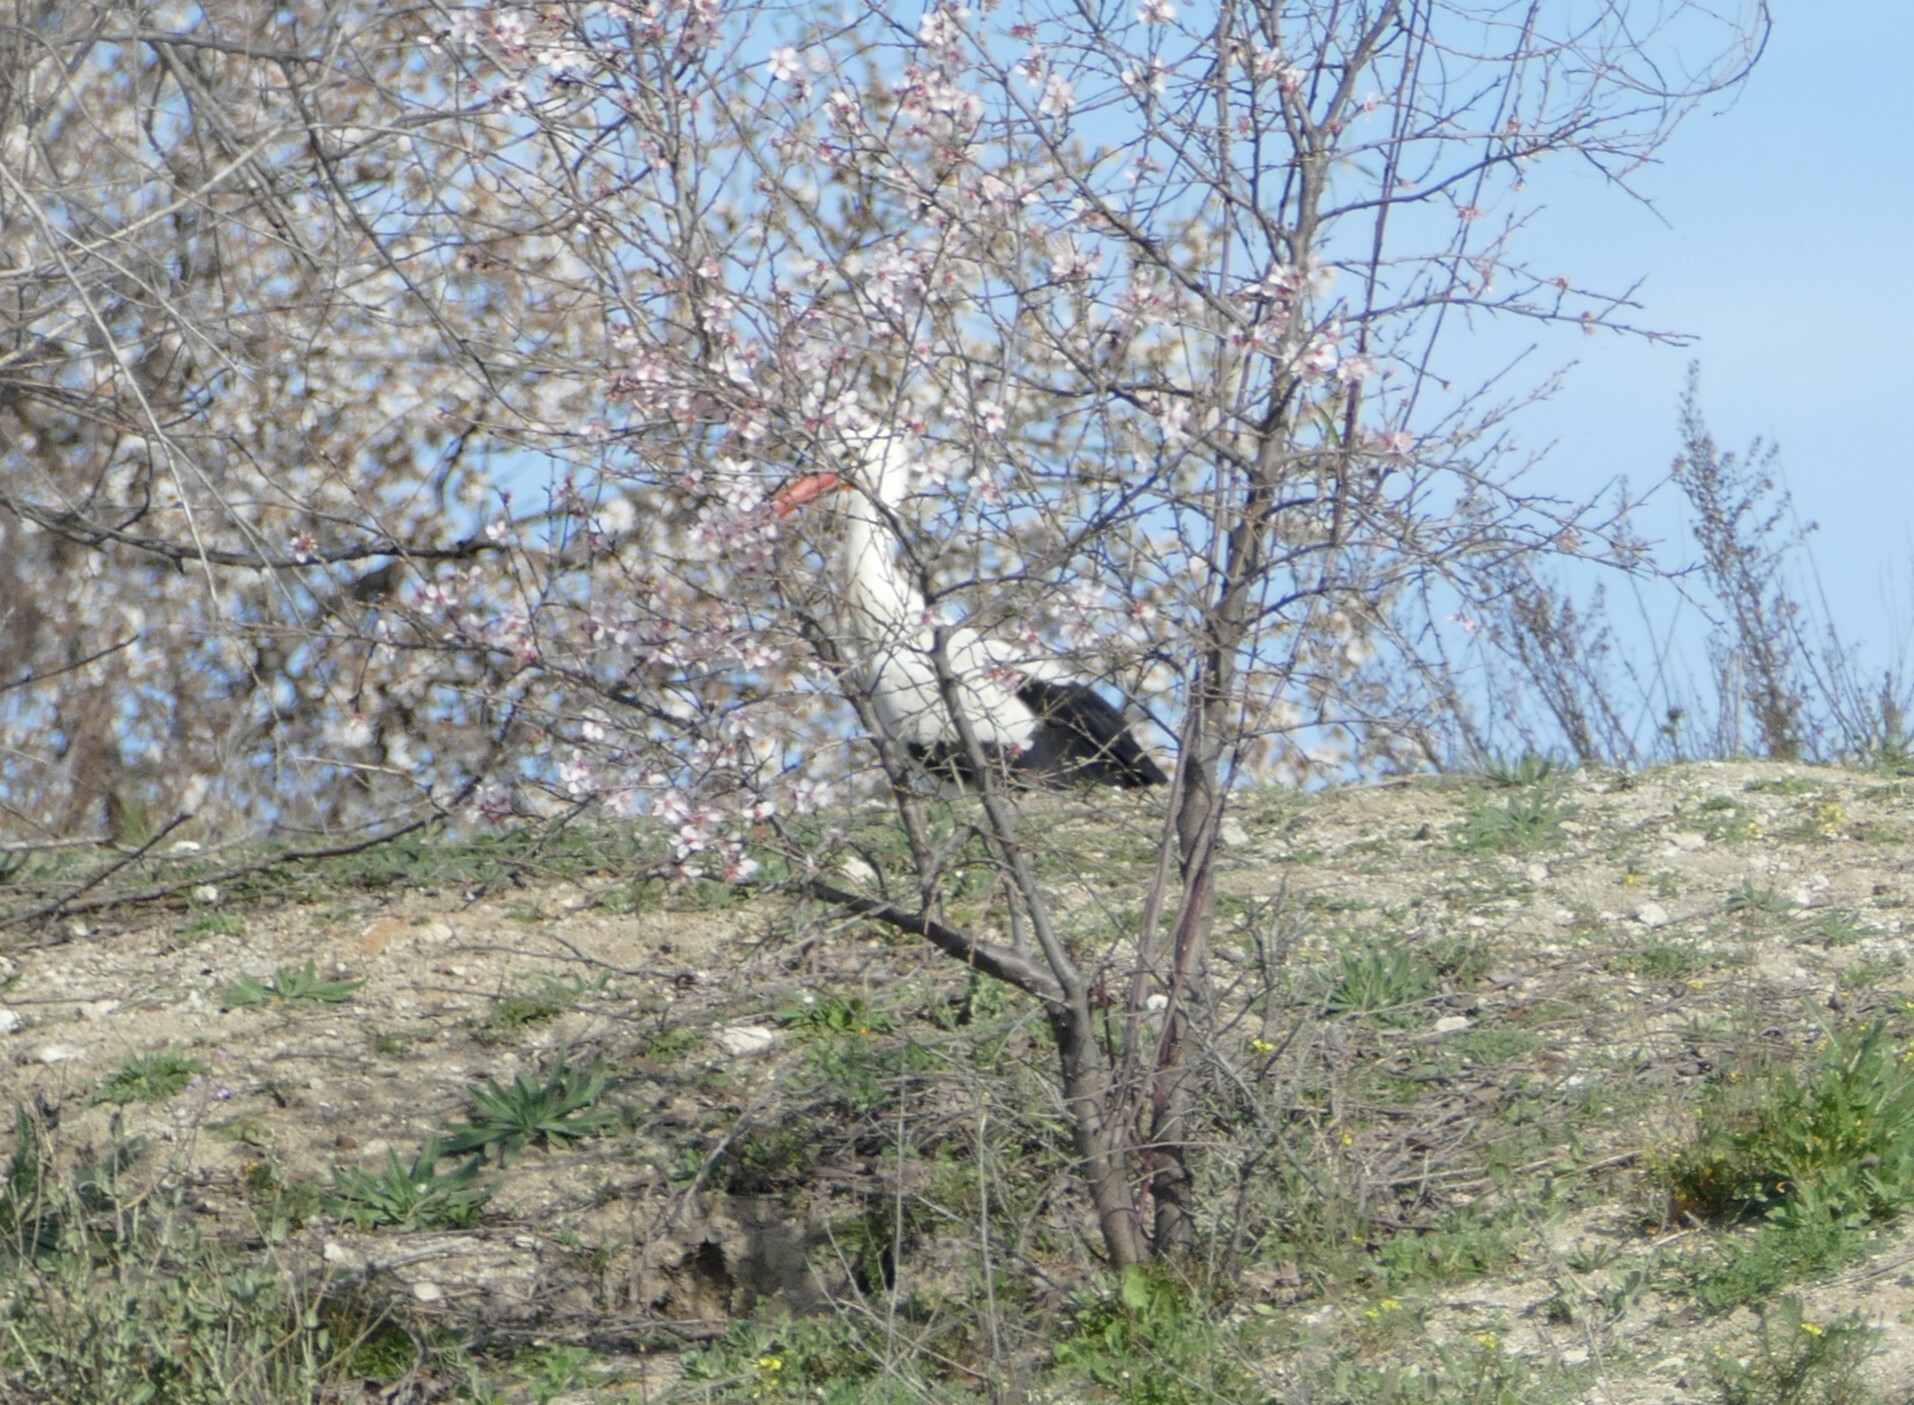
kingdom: Animalia
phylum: Chordata
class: Aves
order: Ciconiiformes
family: Ciconiidae
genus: Ciconia
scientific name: Ciconia ciconia
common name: White stork
